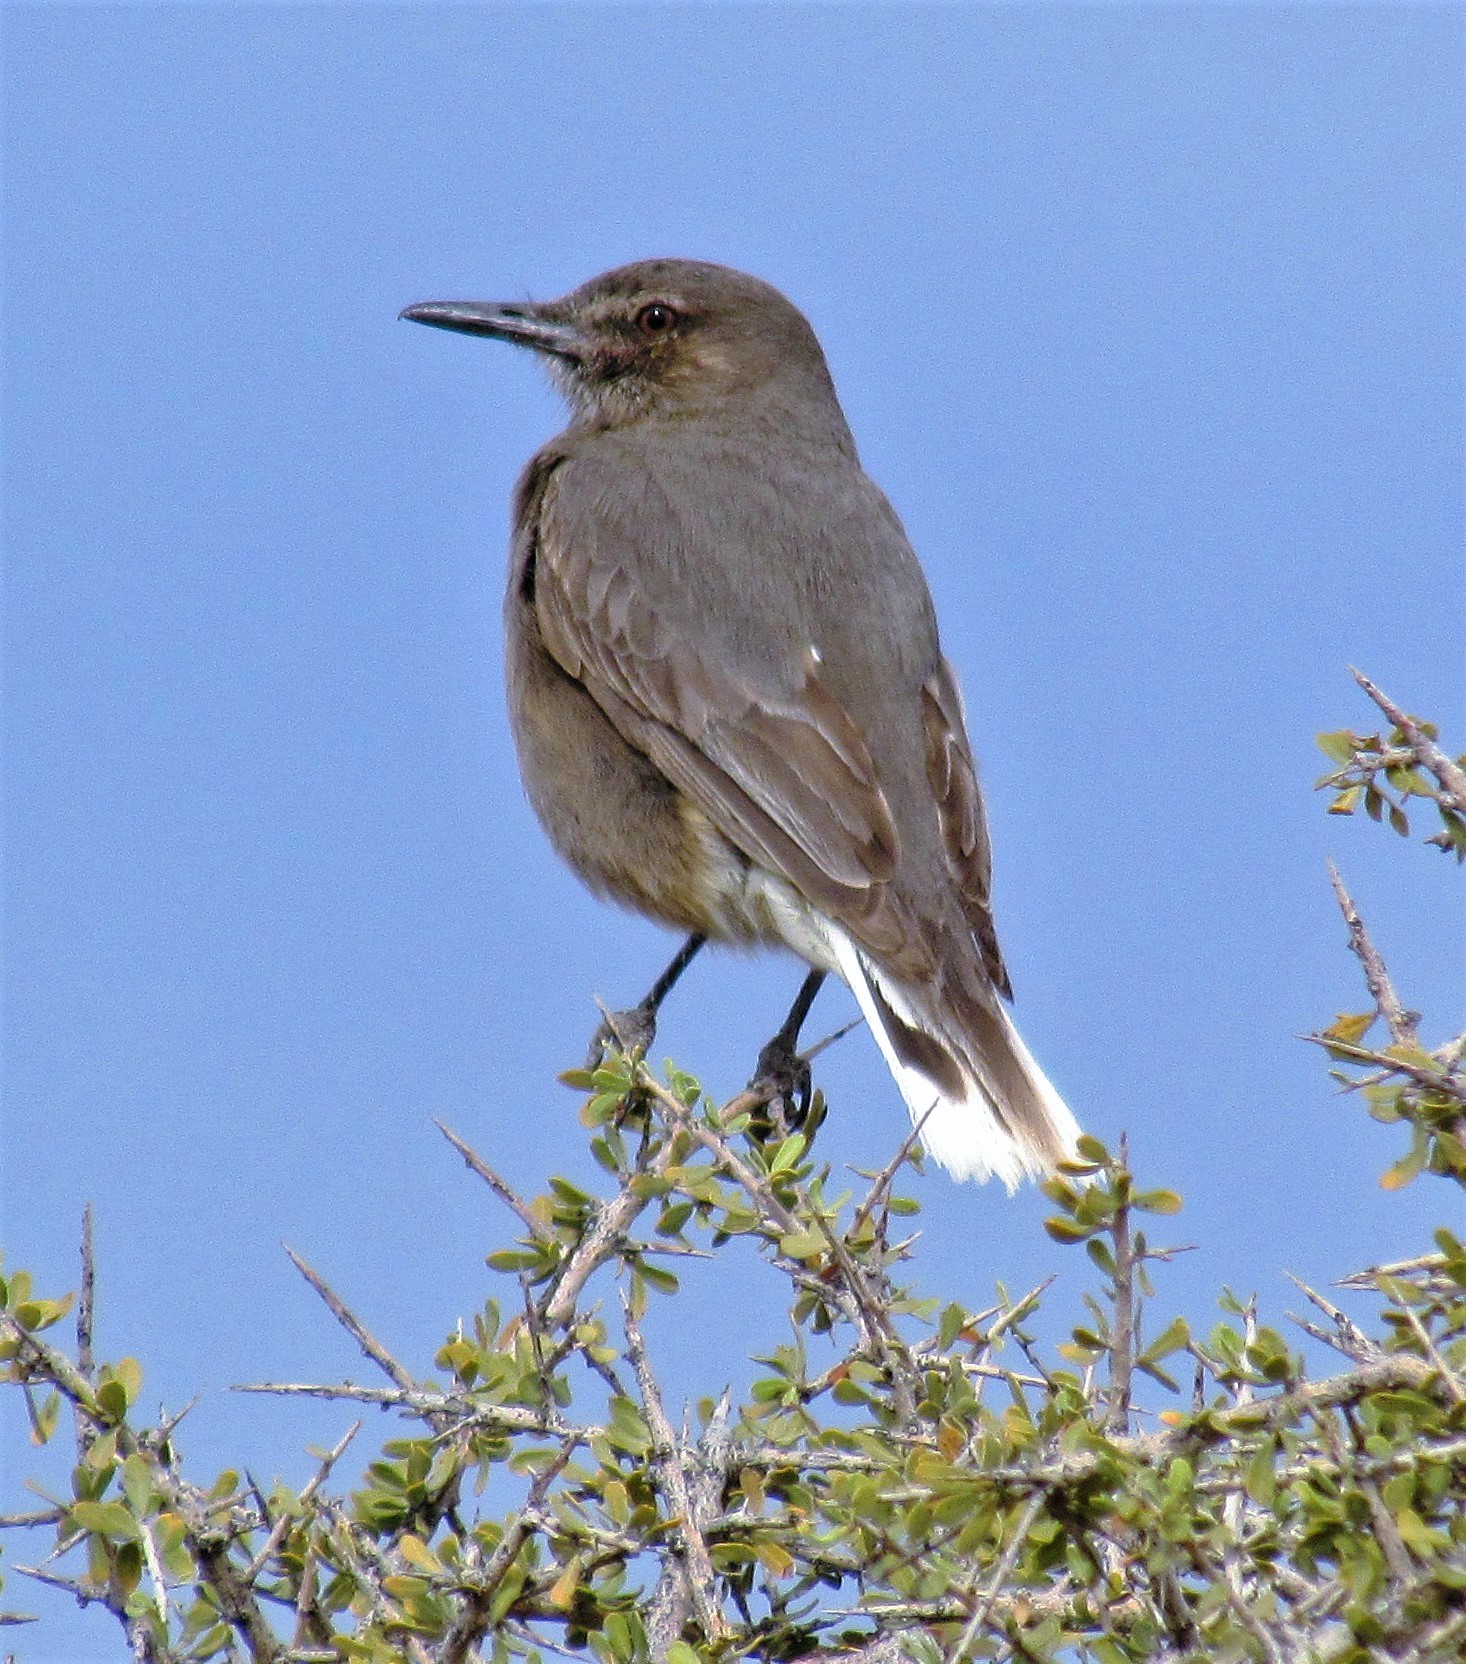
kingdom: Animalia
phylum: Chordata
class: Aves
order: Passeriformes
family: Tyrannidae
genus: Agriornis
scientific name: Agriornis montanus
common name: Black-billed shrike-tyrant
